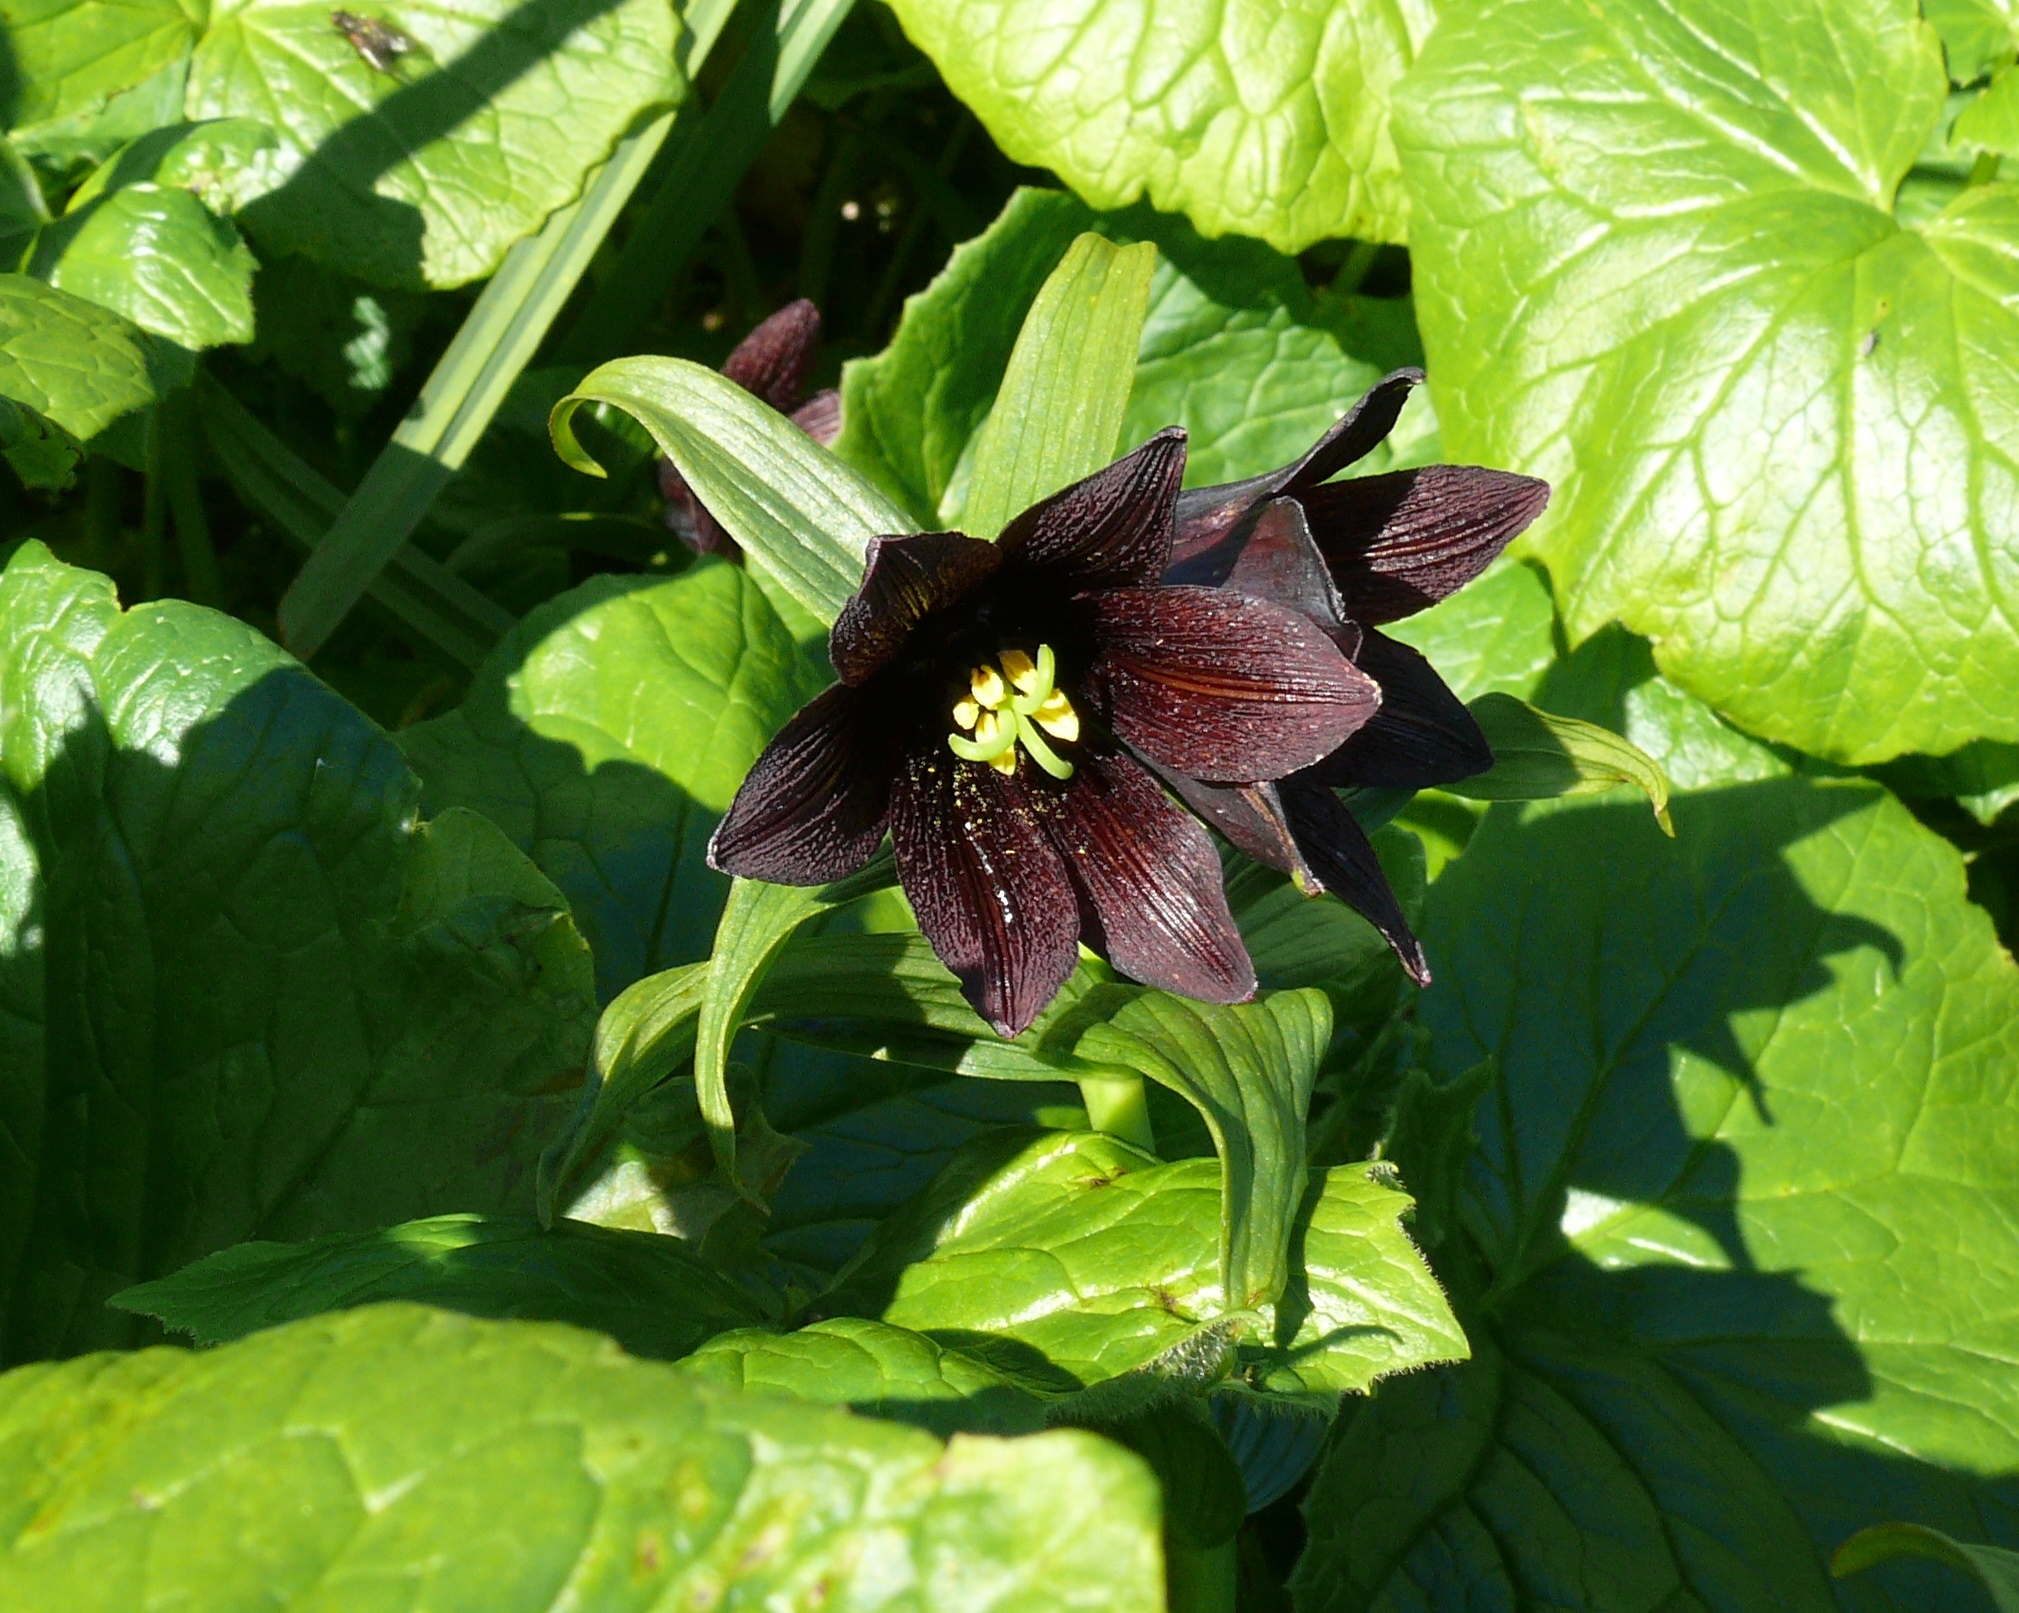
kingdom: Plantae
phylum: Tracheophyta
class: Liliopsida
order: Liliales
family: Liliaceae
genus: Fritillaria
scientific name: Fritillaria camschatcensis
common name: Kamchatka fritillary
